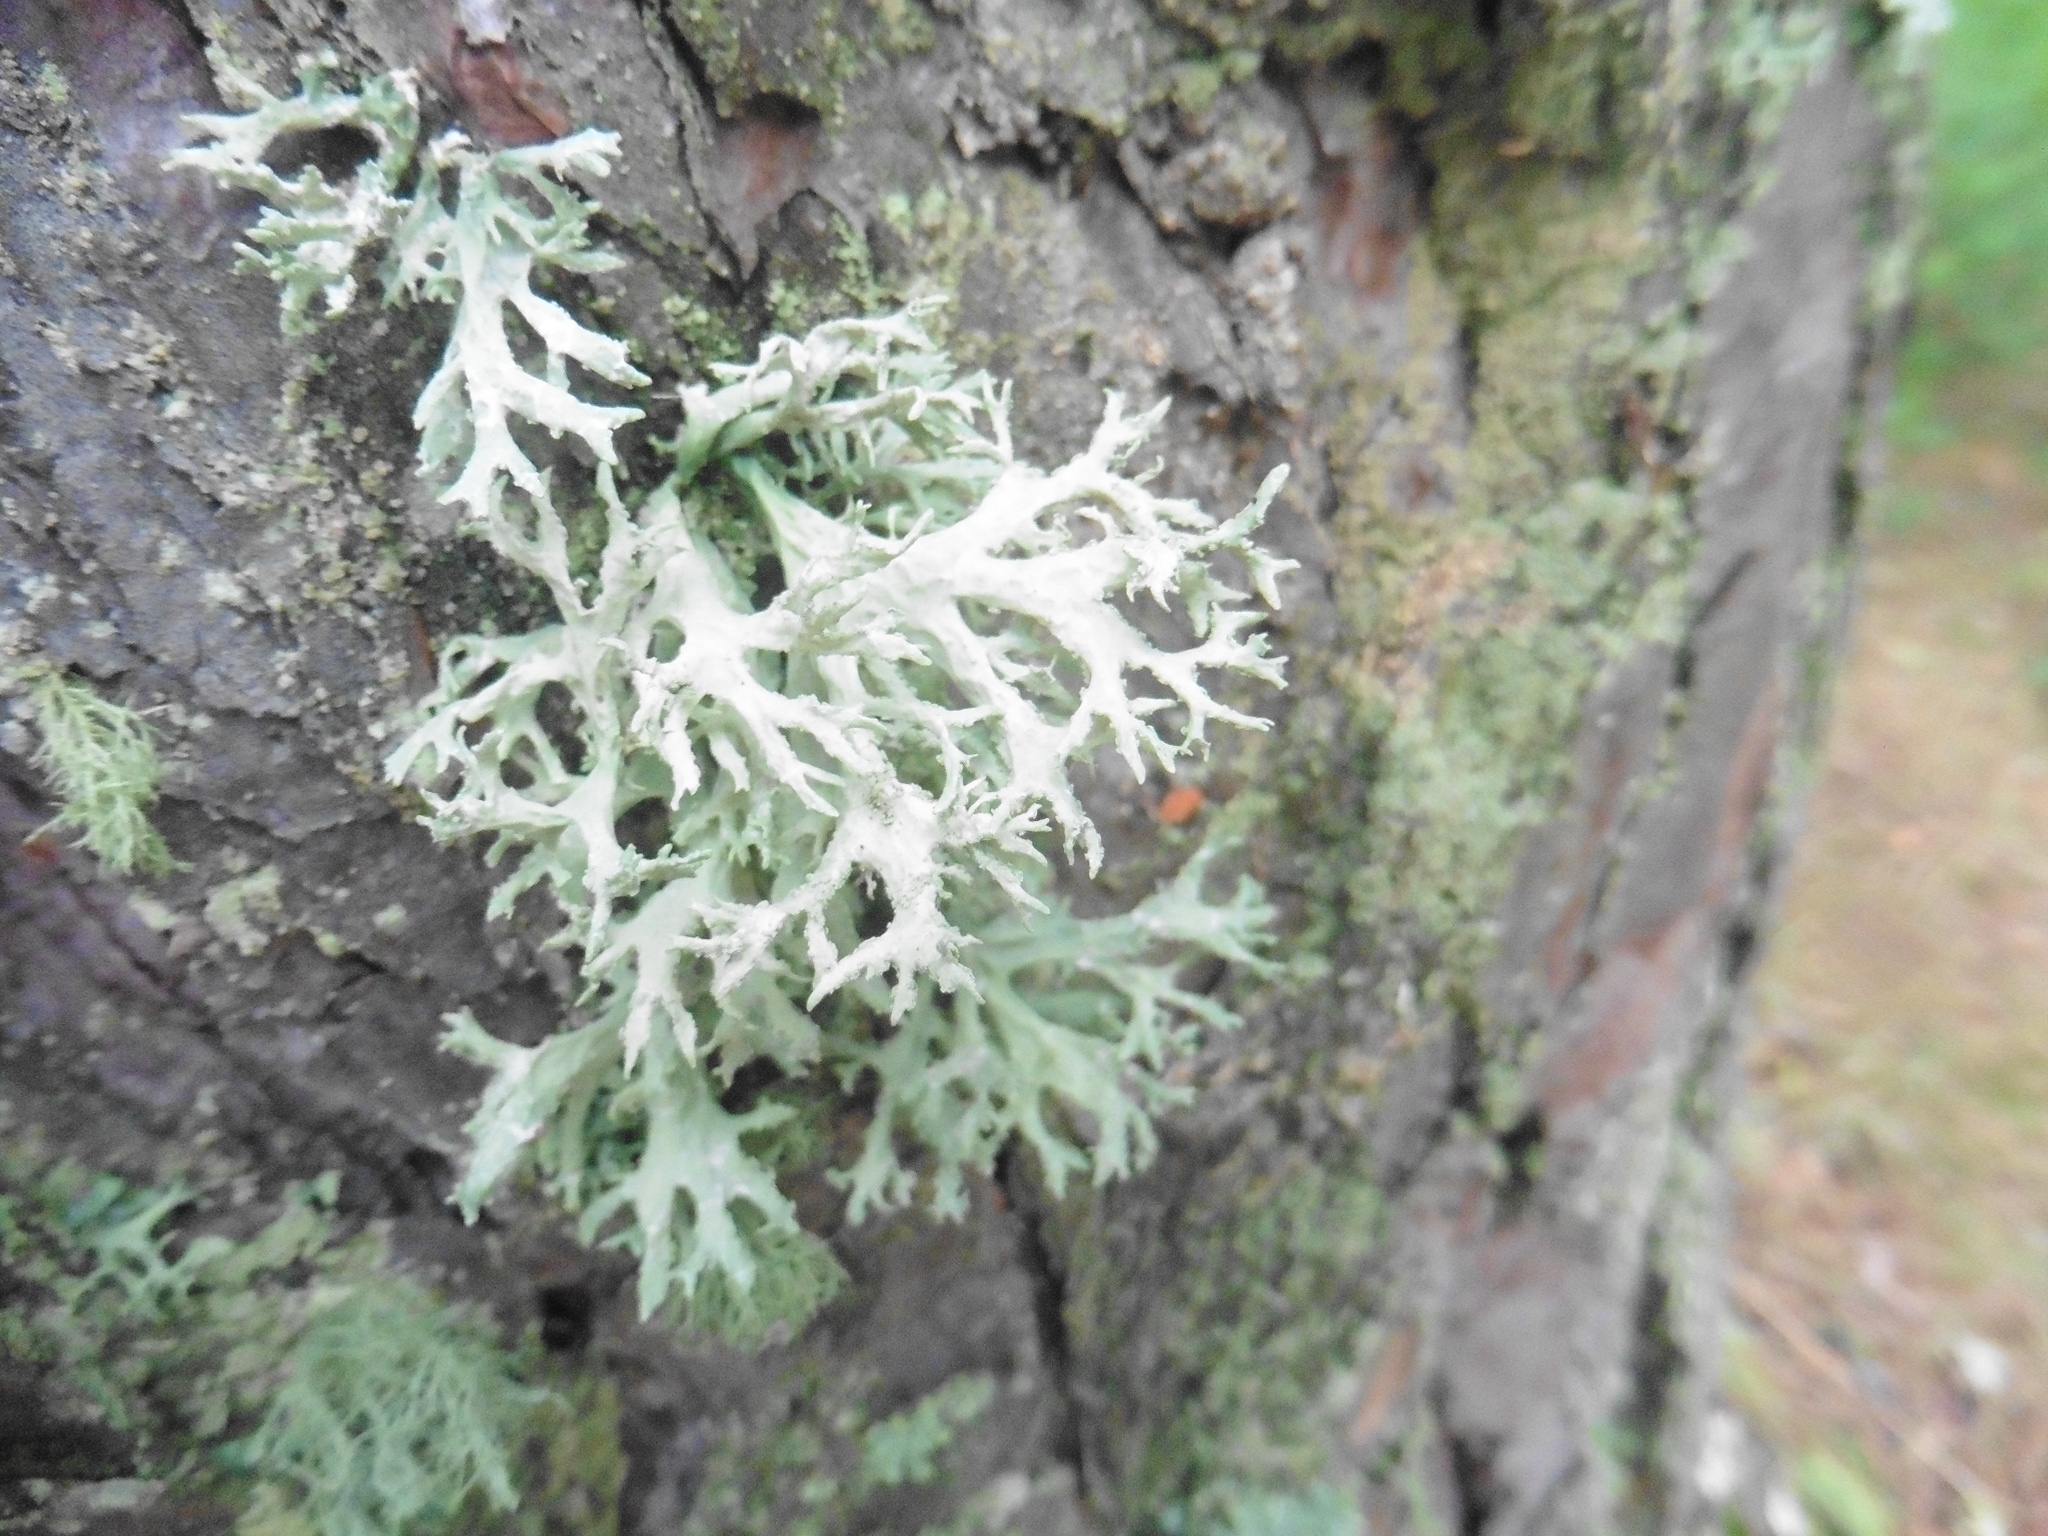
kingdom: Fungi
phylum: Ascomycota
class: Lecanoromycetes
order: Lecanorales
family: Parmeliaceae
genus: Evernia
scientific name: Evernia prunastri
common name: Oak moss
